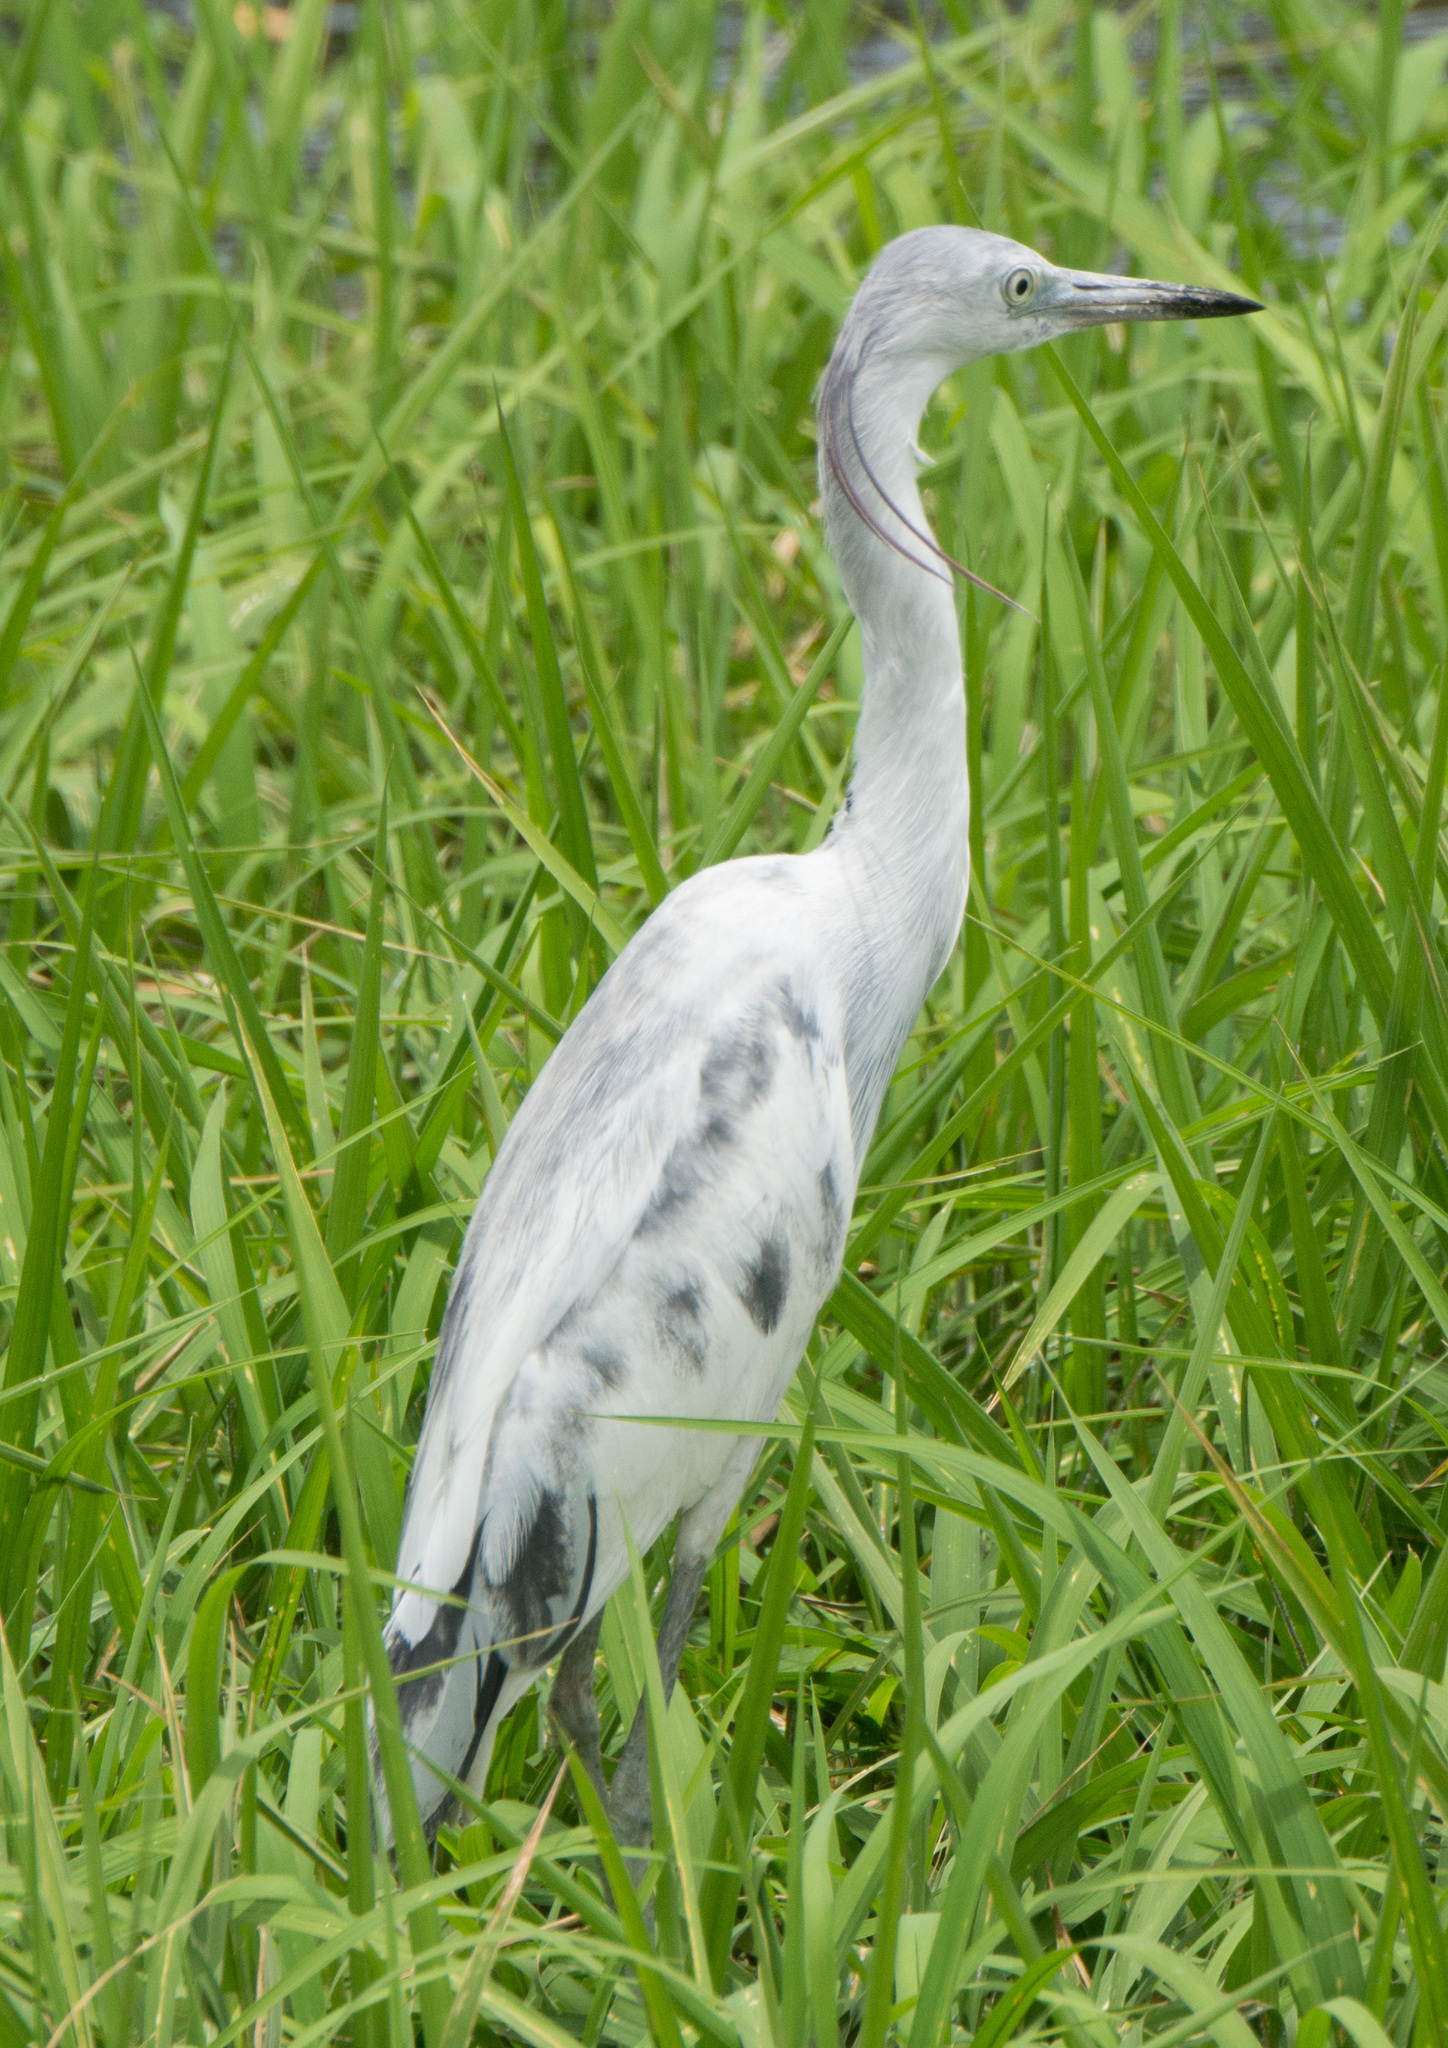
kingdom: Animalia
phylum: Chordata
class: Aves
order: Pelecaniformes
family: Ardeidae
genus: Egretta
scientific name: Egretta caerulea
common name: Little blue heron
